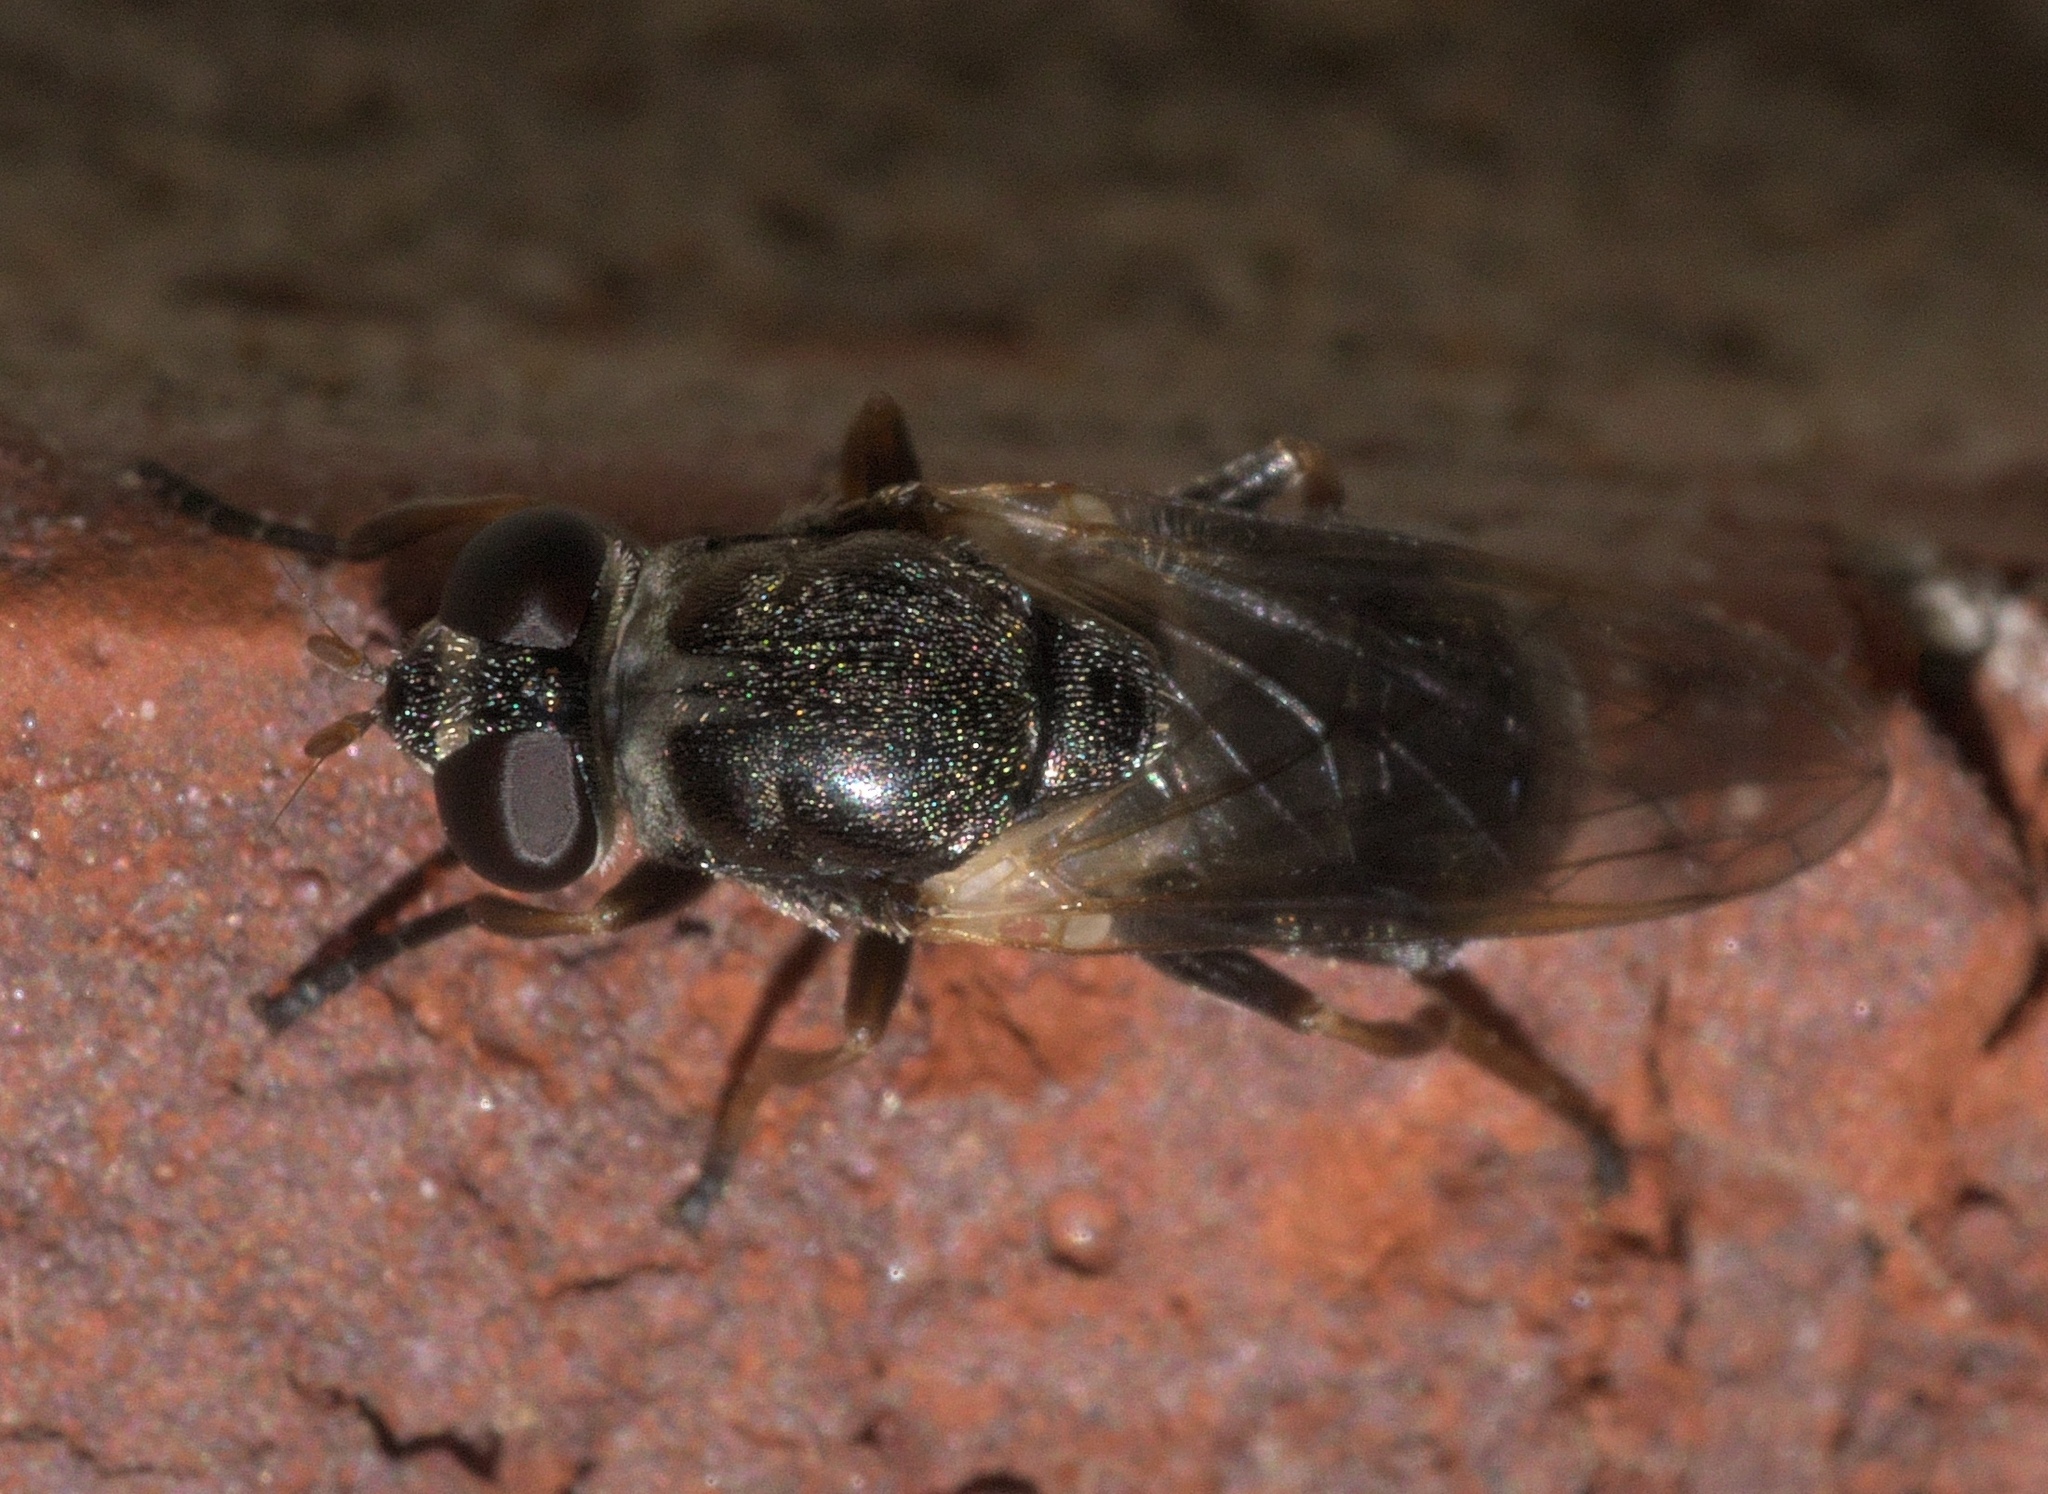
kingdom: Animalia
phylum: Arthropoda
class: Insecta
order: Diptera
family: Syrphidae
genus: Myolepta
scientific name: Myolepta varipes
